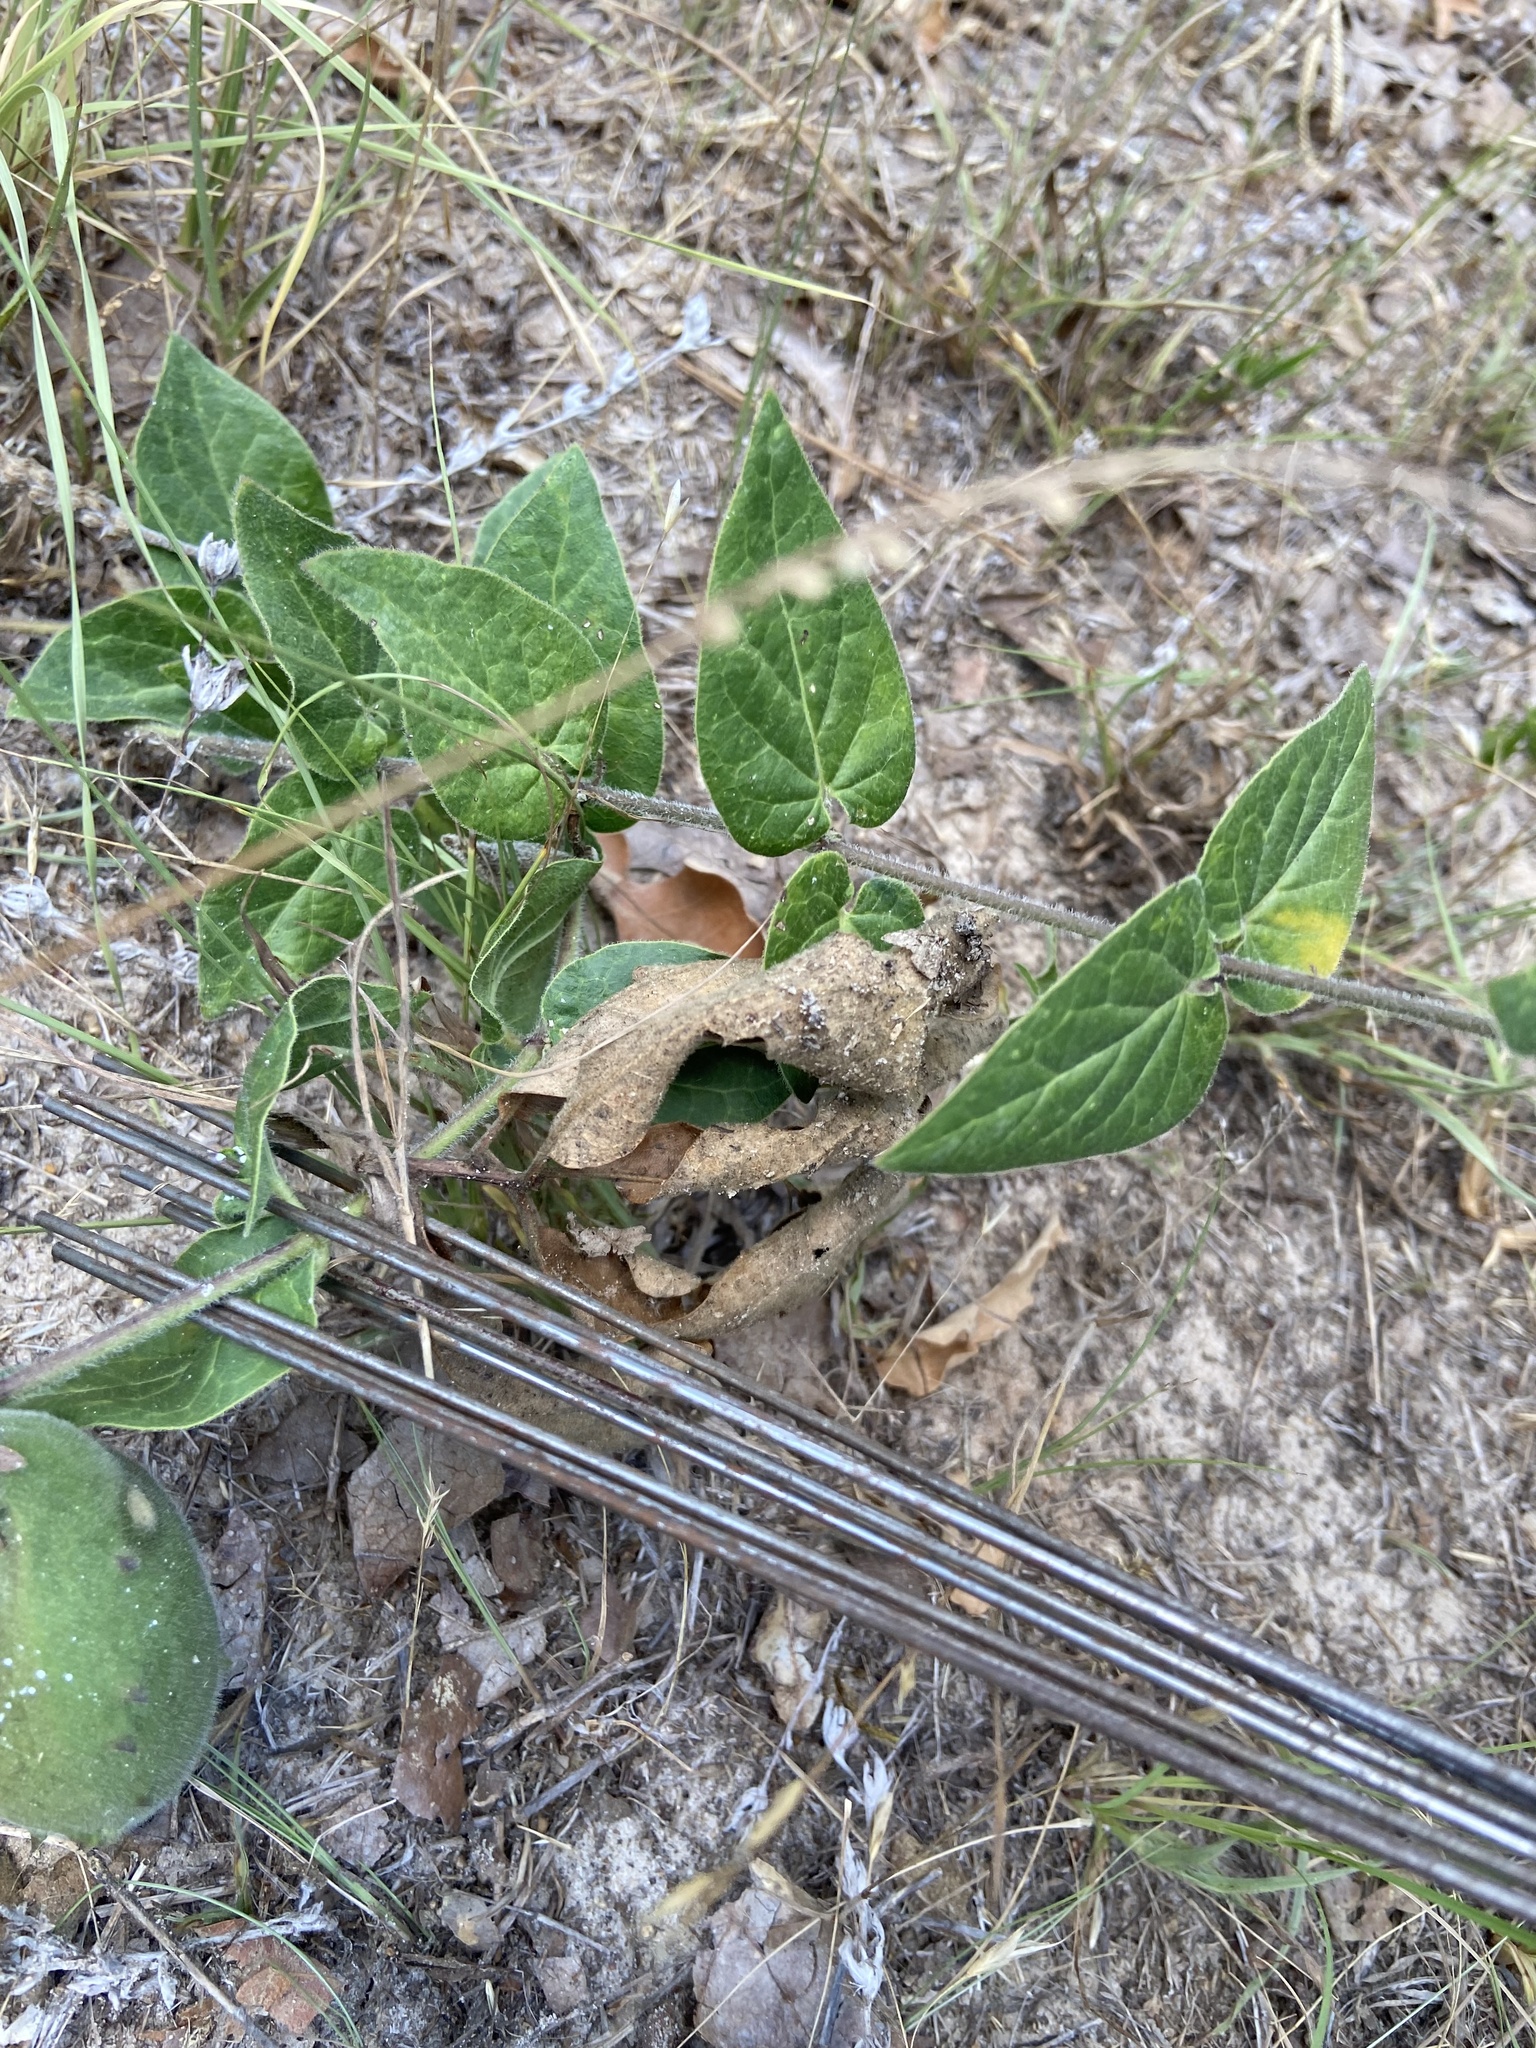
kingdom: Plantae
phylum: Tracheophyta
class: Magnoliopsida
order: Gentianales
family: Apocynaceae
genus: Matelea
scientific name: Matelea cynanchoides
